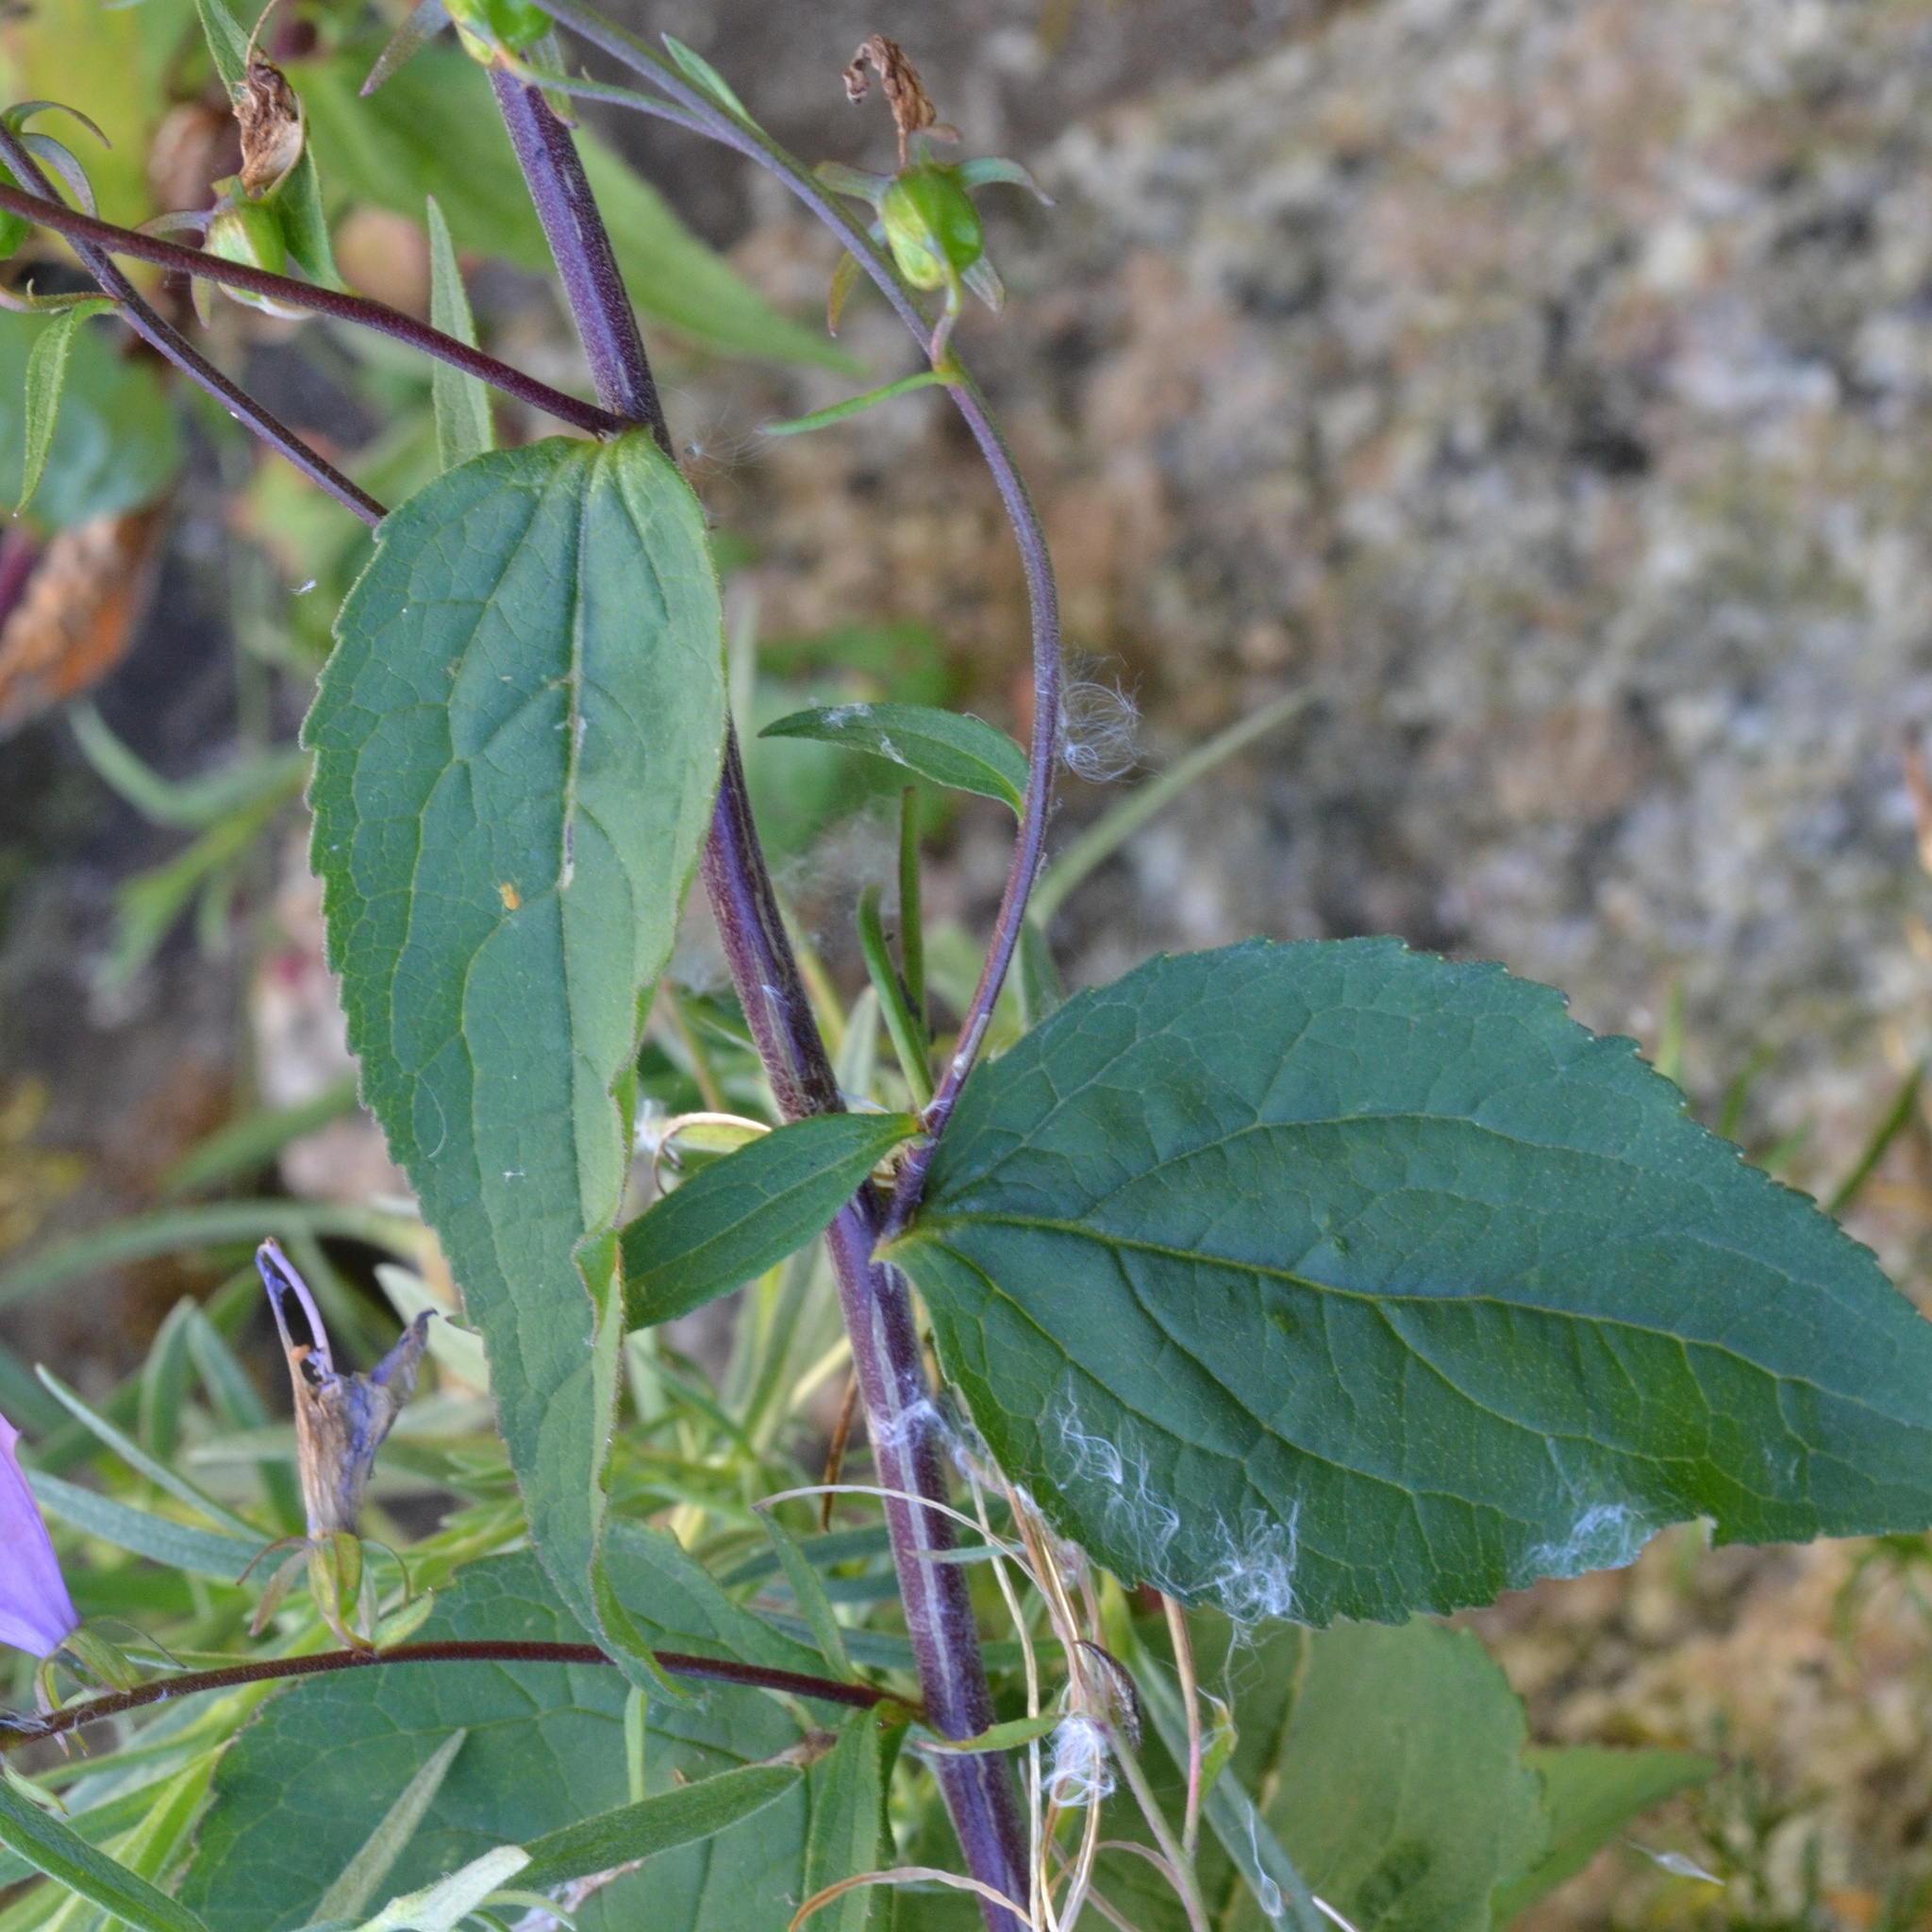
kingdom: Plantae
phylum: Tracheophyta
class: Magnoliopsida
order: Asterales
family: Campanulaceae
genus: Campanula
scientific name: Campanula rapunculoides
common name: Creeping bellflower
